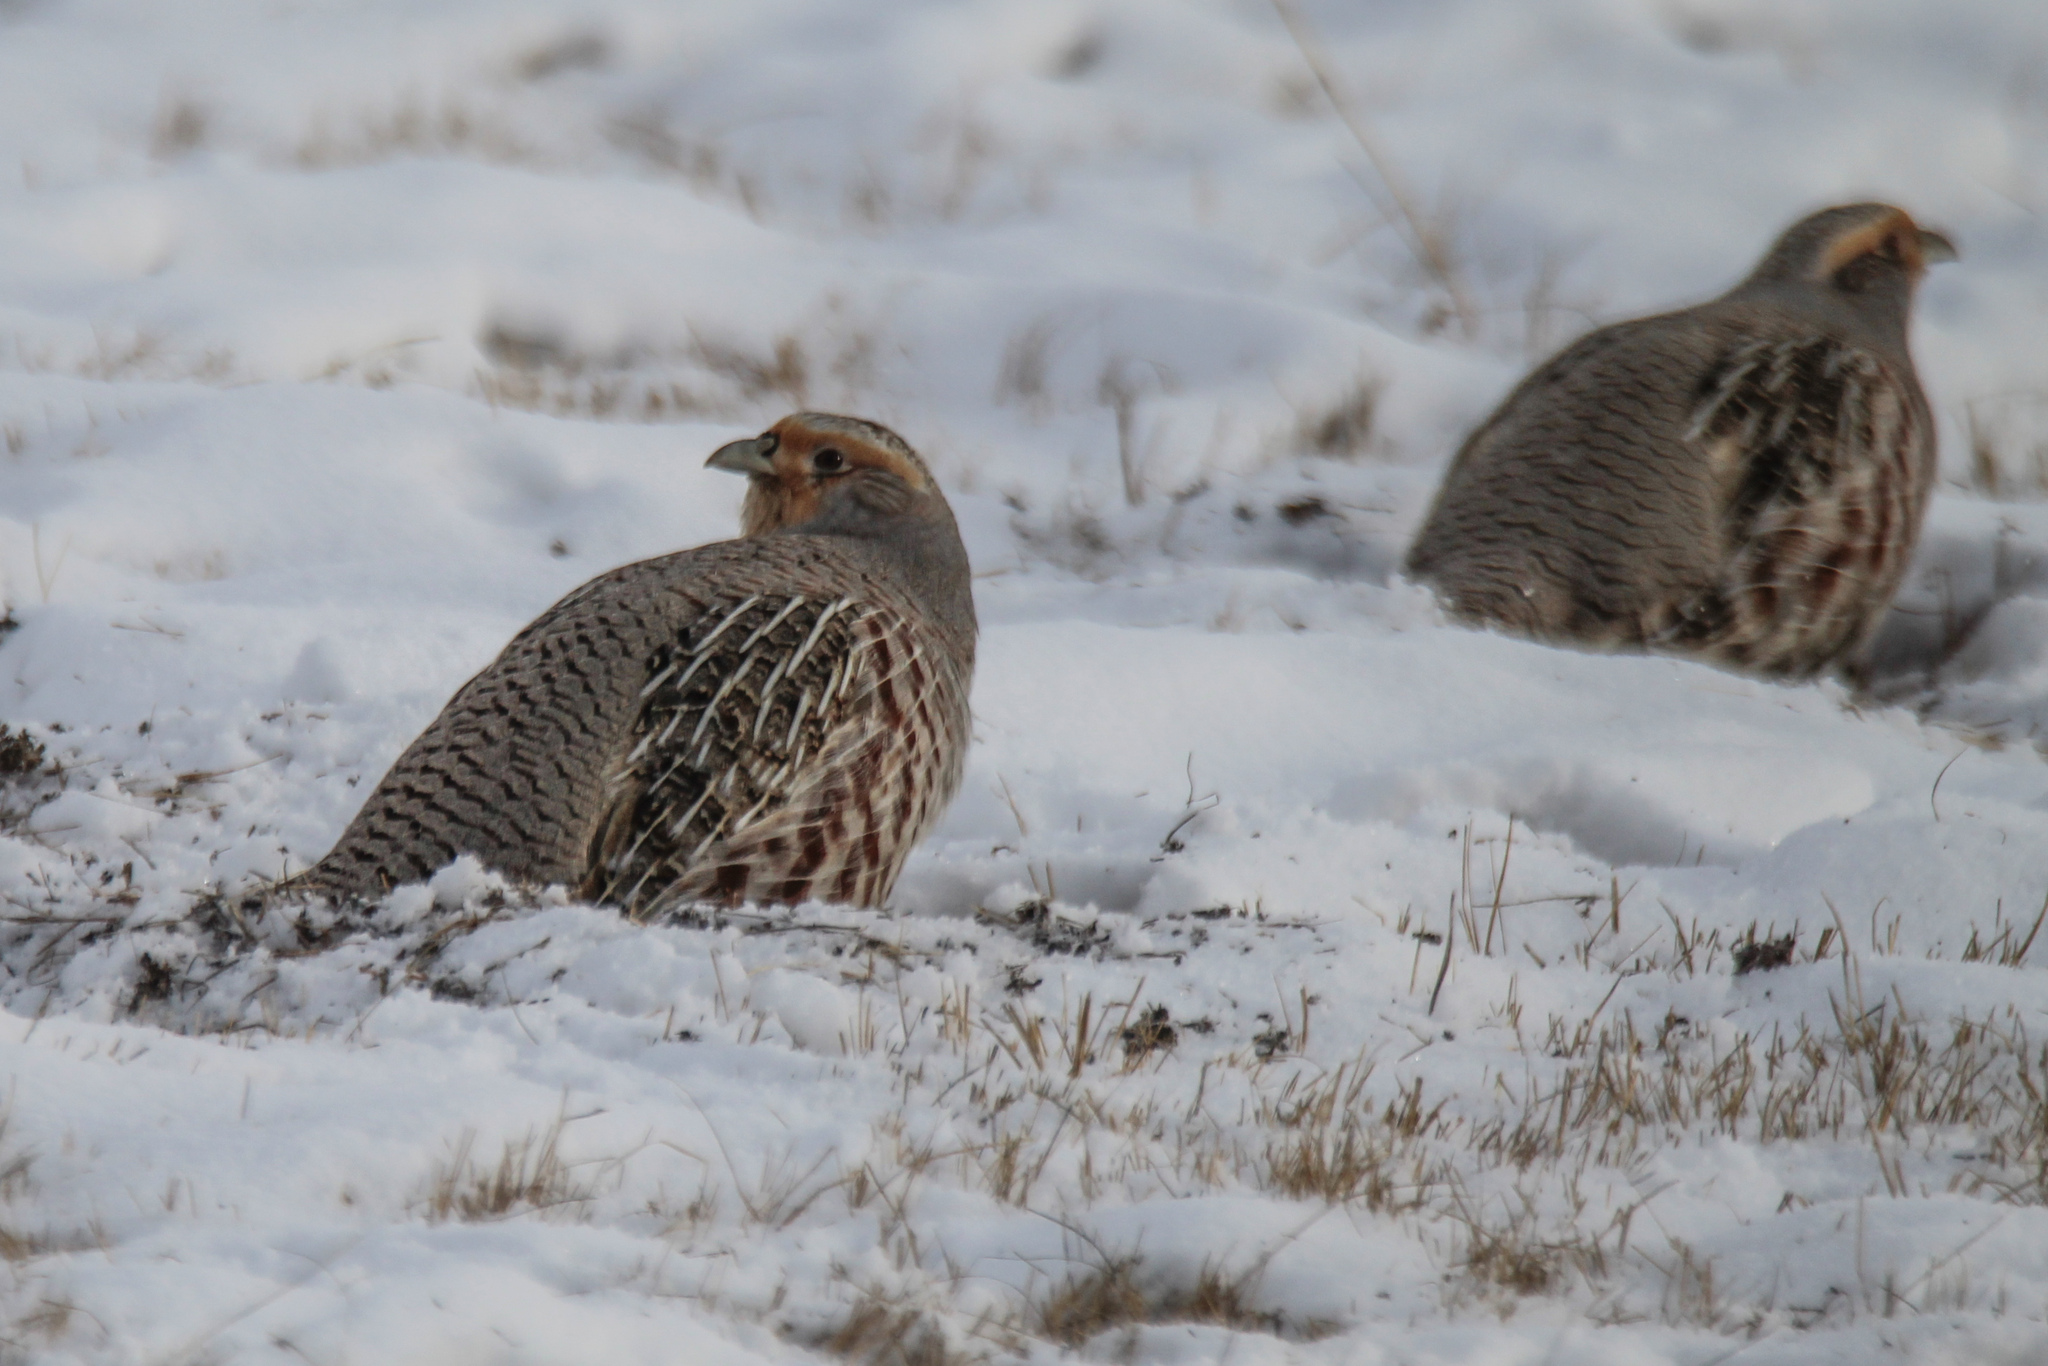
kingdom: Animalia
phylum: Chordata
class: Aves
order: Galliformes
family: Phasianidae
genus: Perdix
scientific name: Perdix dauurica
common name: Daurian partridge
